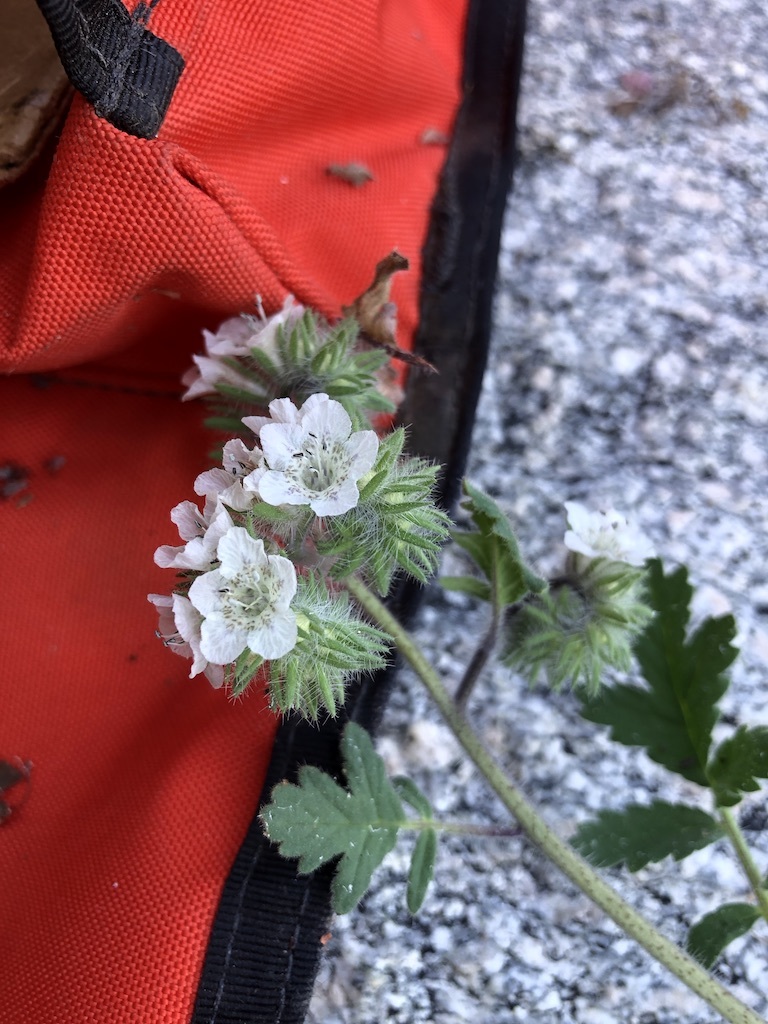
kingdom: Plantae
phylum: Tracheophyta
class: Magnoliopsida
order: Boraginales
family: Hydrophyllaceae
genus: Phacelia
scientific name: Phacelia cicutaria
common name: Caterpillar phacelia
